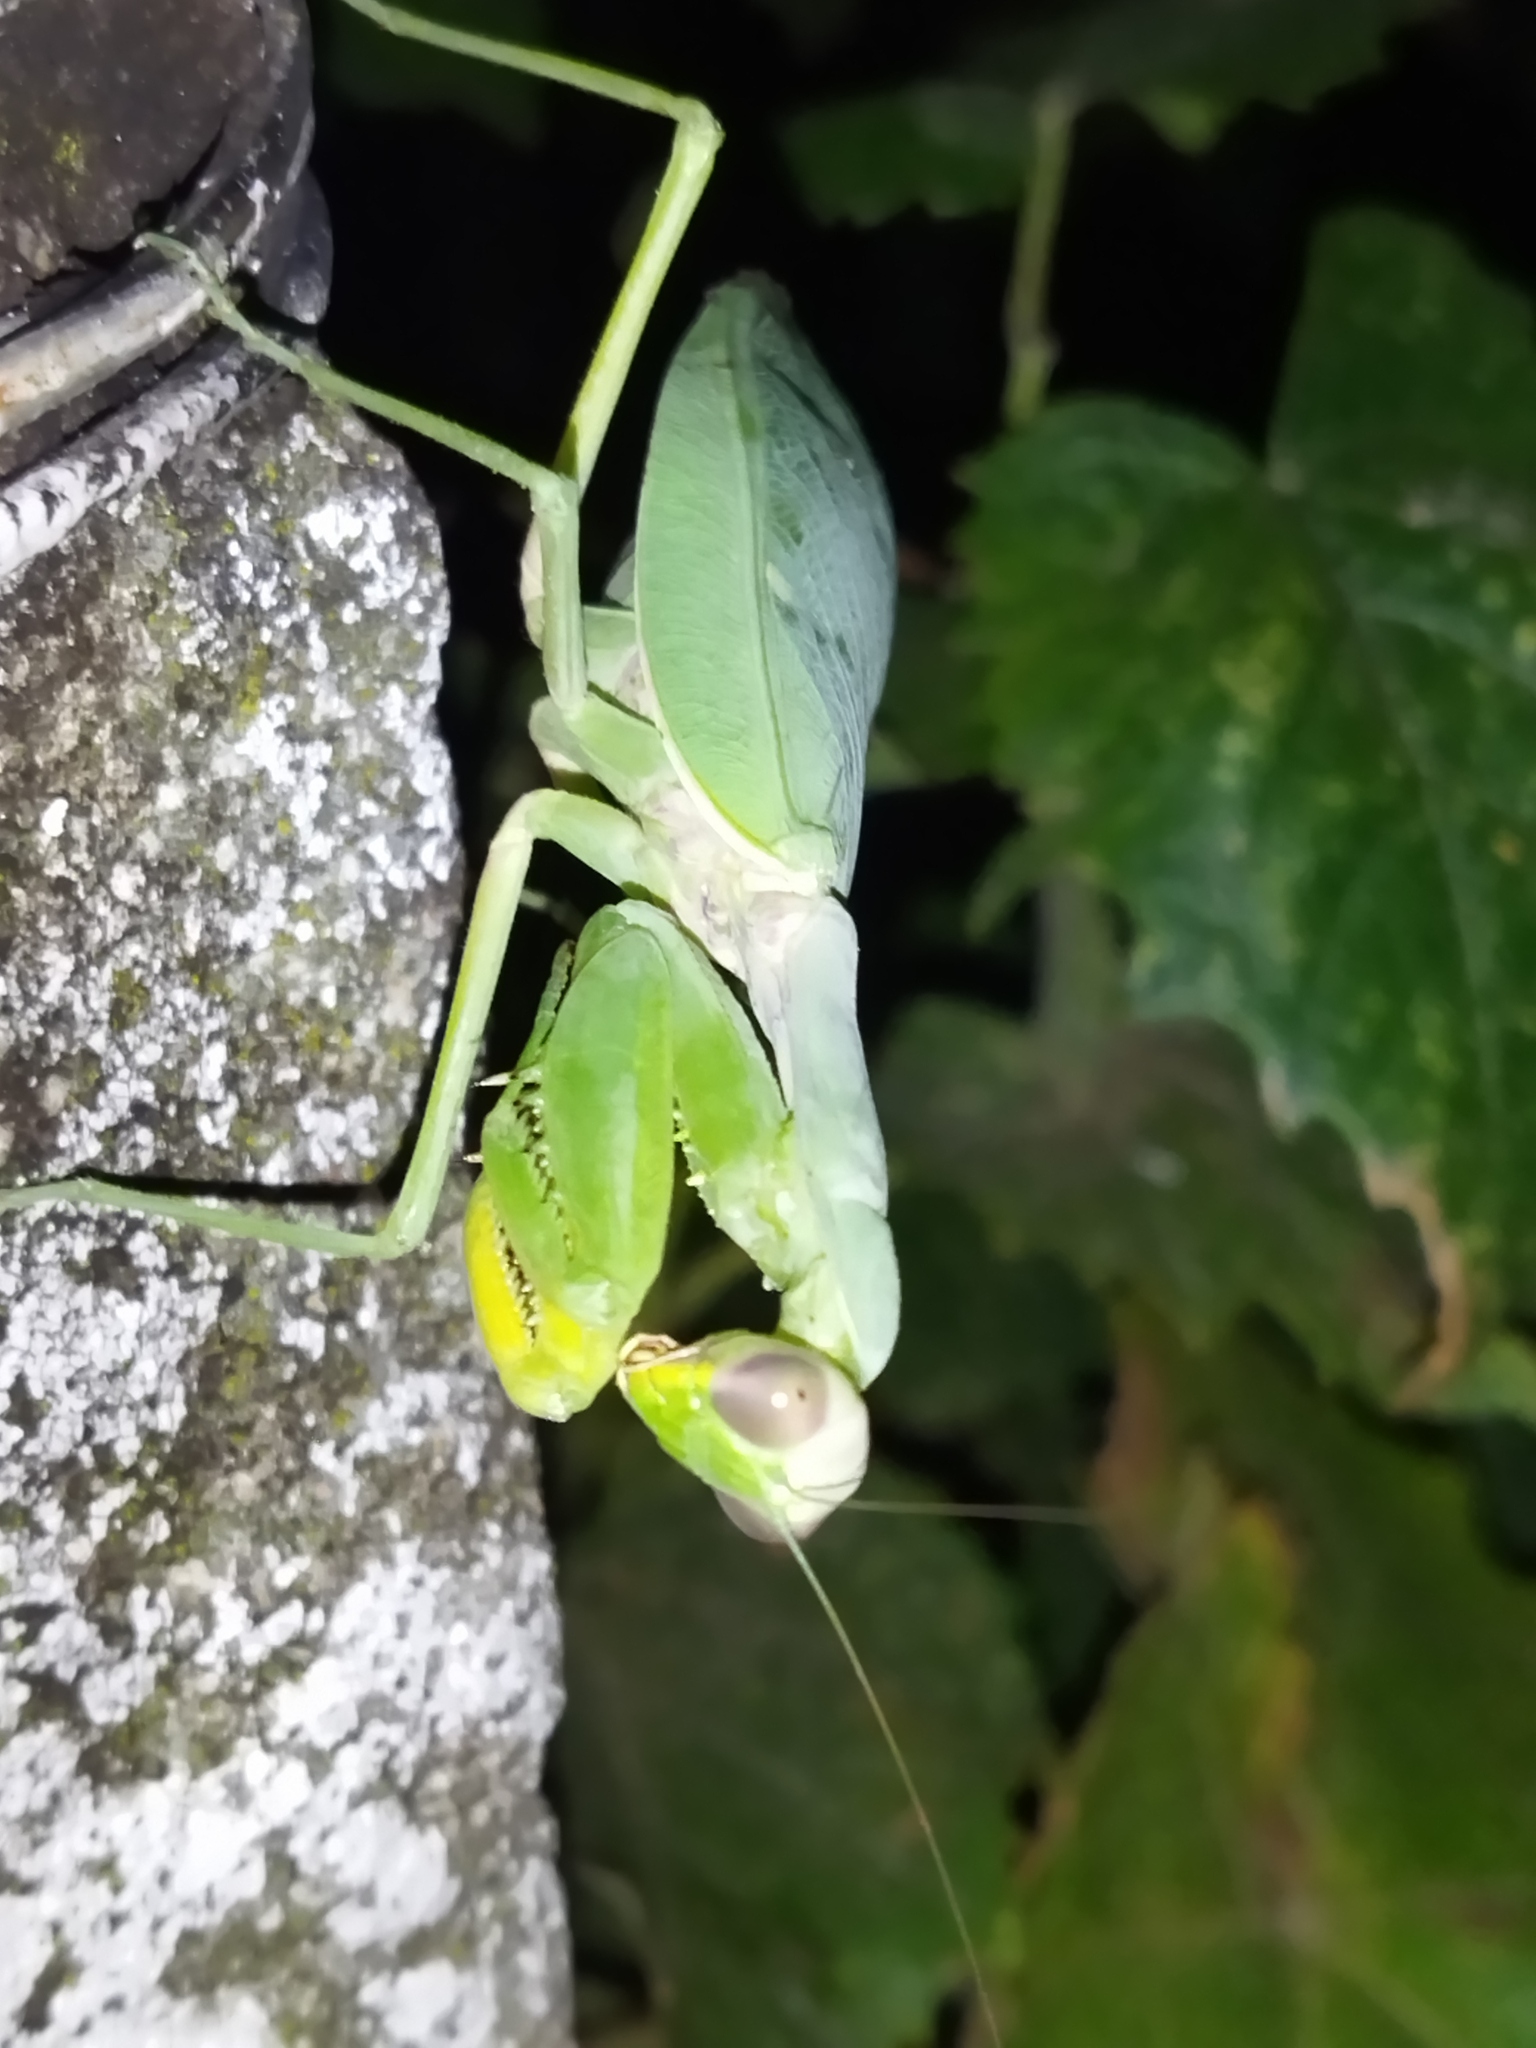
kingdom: Animalia
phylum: Arthropoda
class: Insecta
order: Mantodea
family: Mantidae
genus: Hierodula
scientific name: Hierodula transcaucasica
